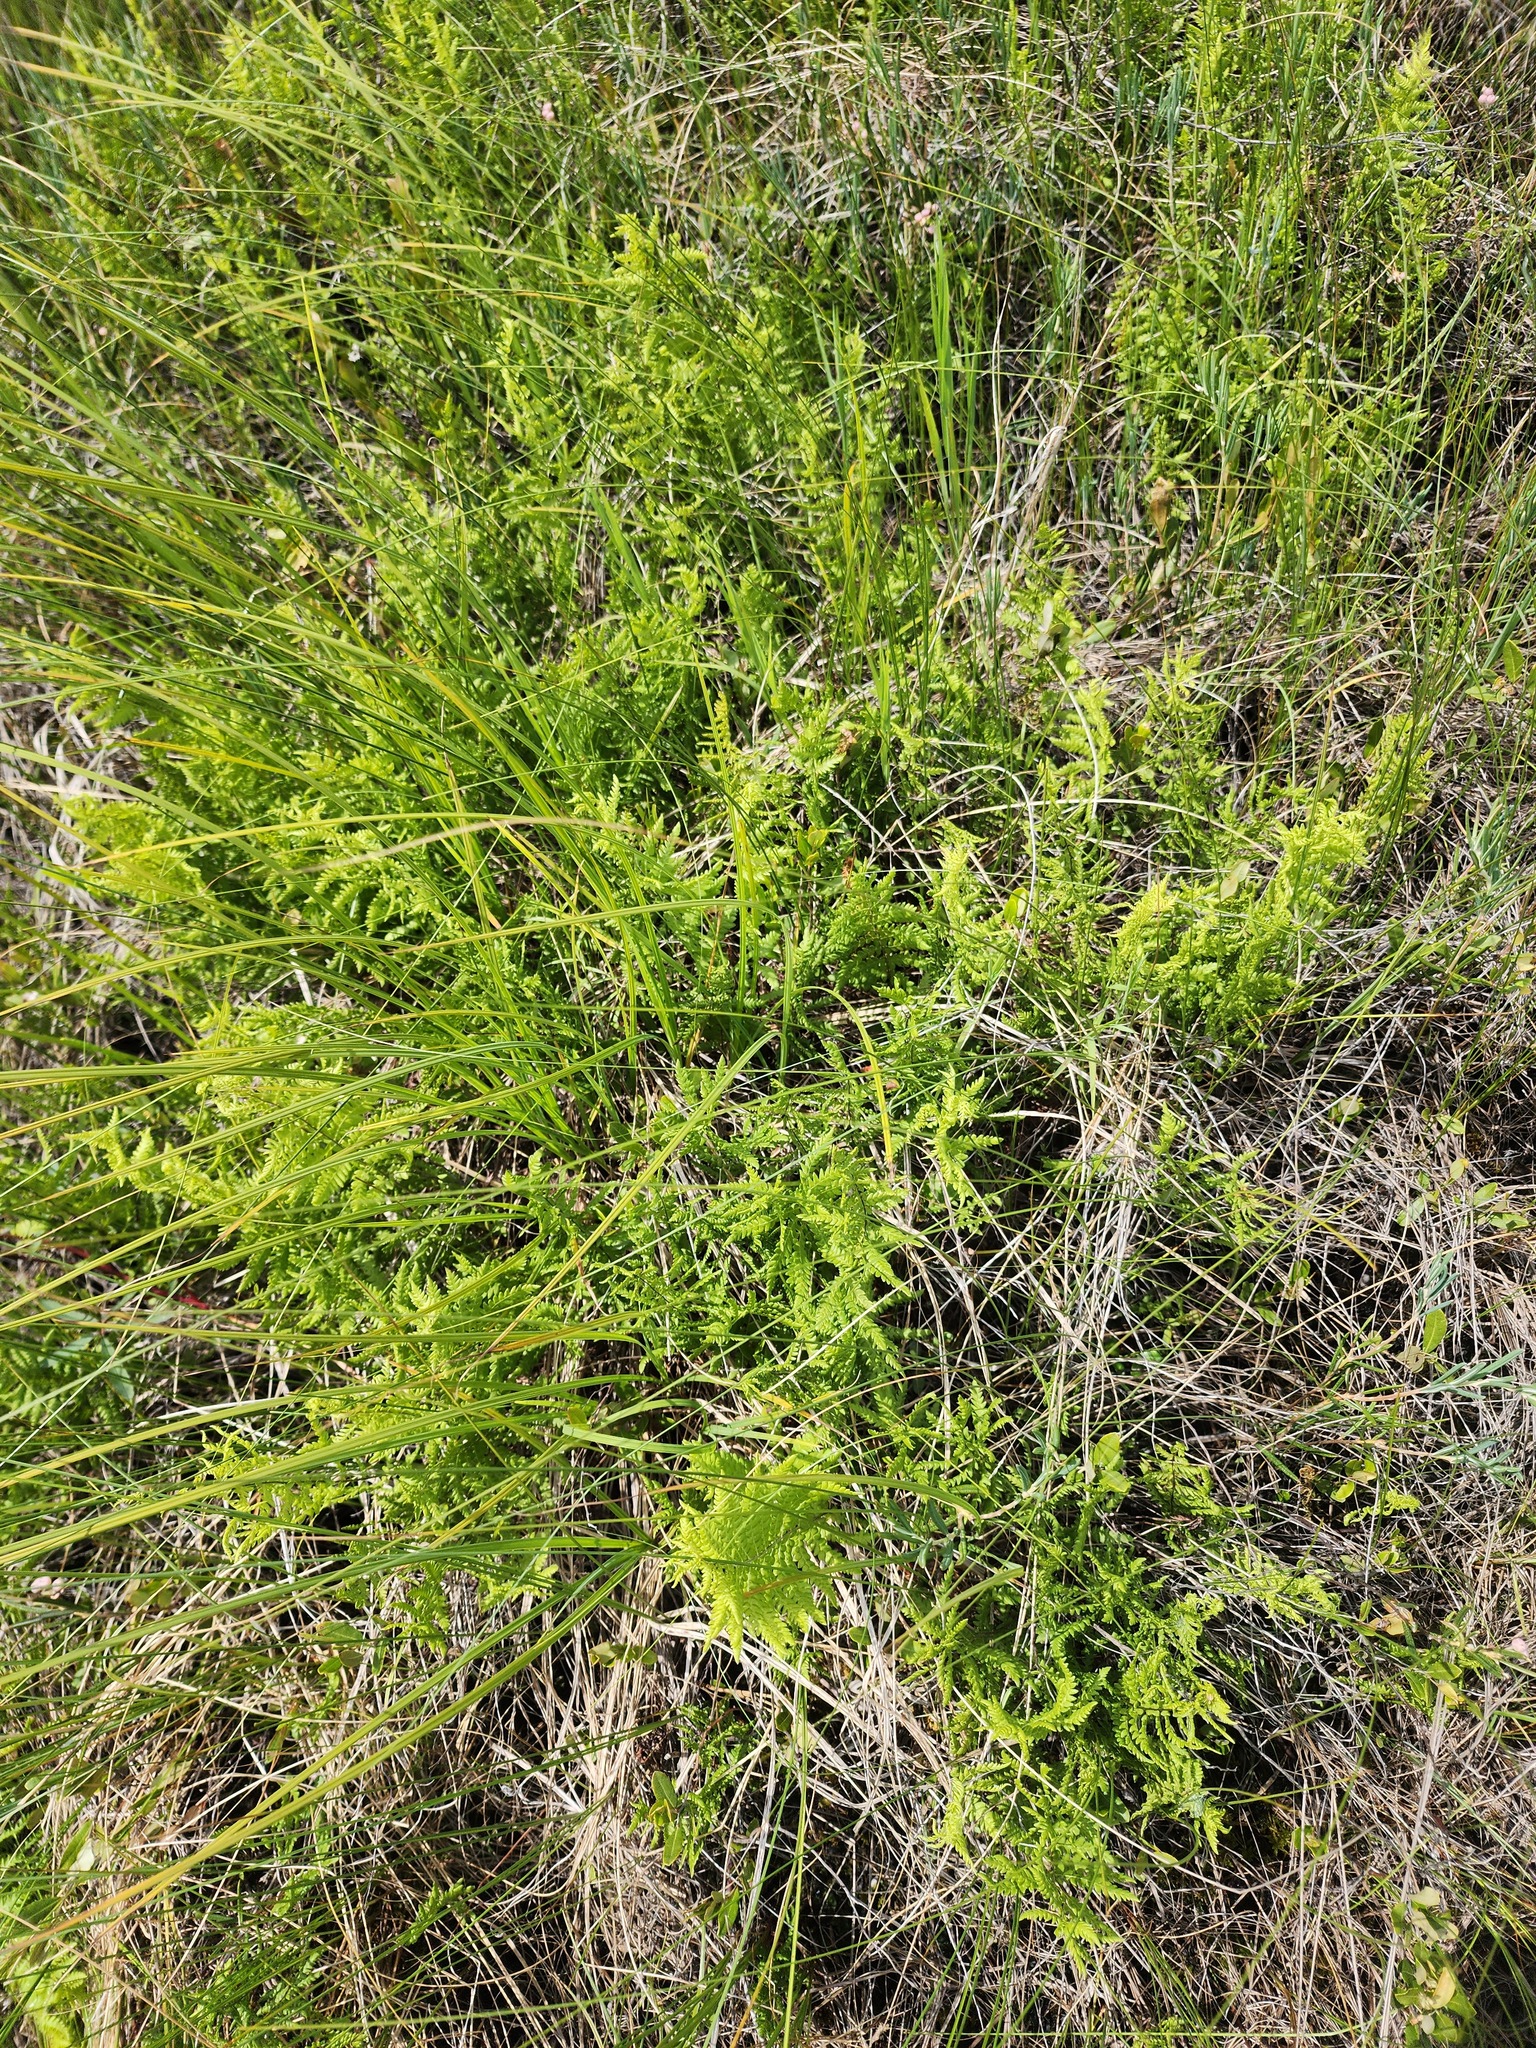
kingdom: Plantae
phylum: Tracheophyta
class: Polypodiopsida
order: Polypodiales
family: Thelypteridaceae
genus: Thelypteris
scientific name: Thelypteris palustris
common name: Marsh fern
